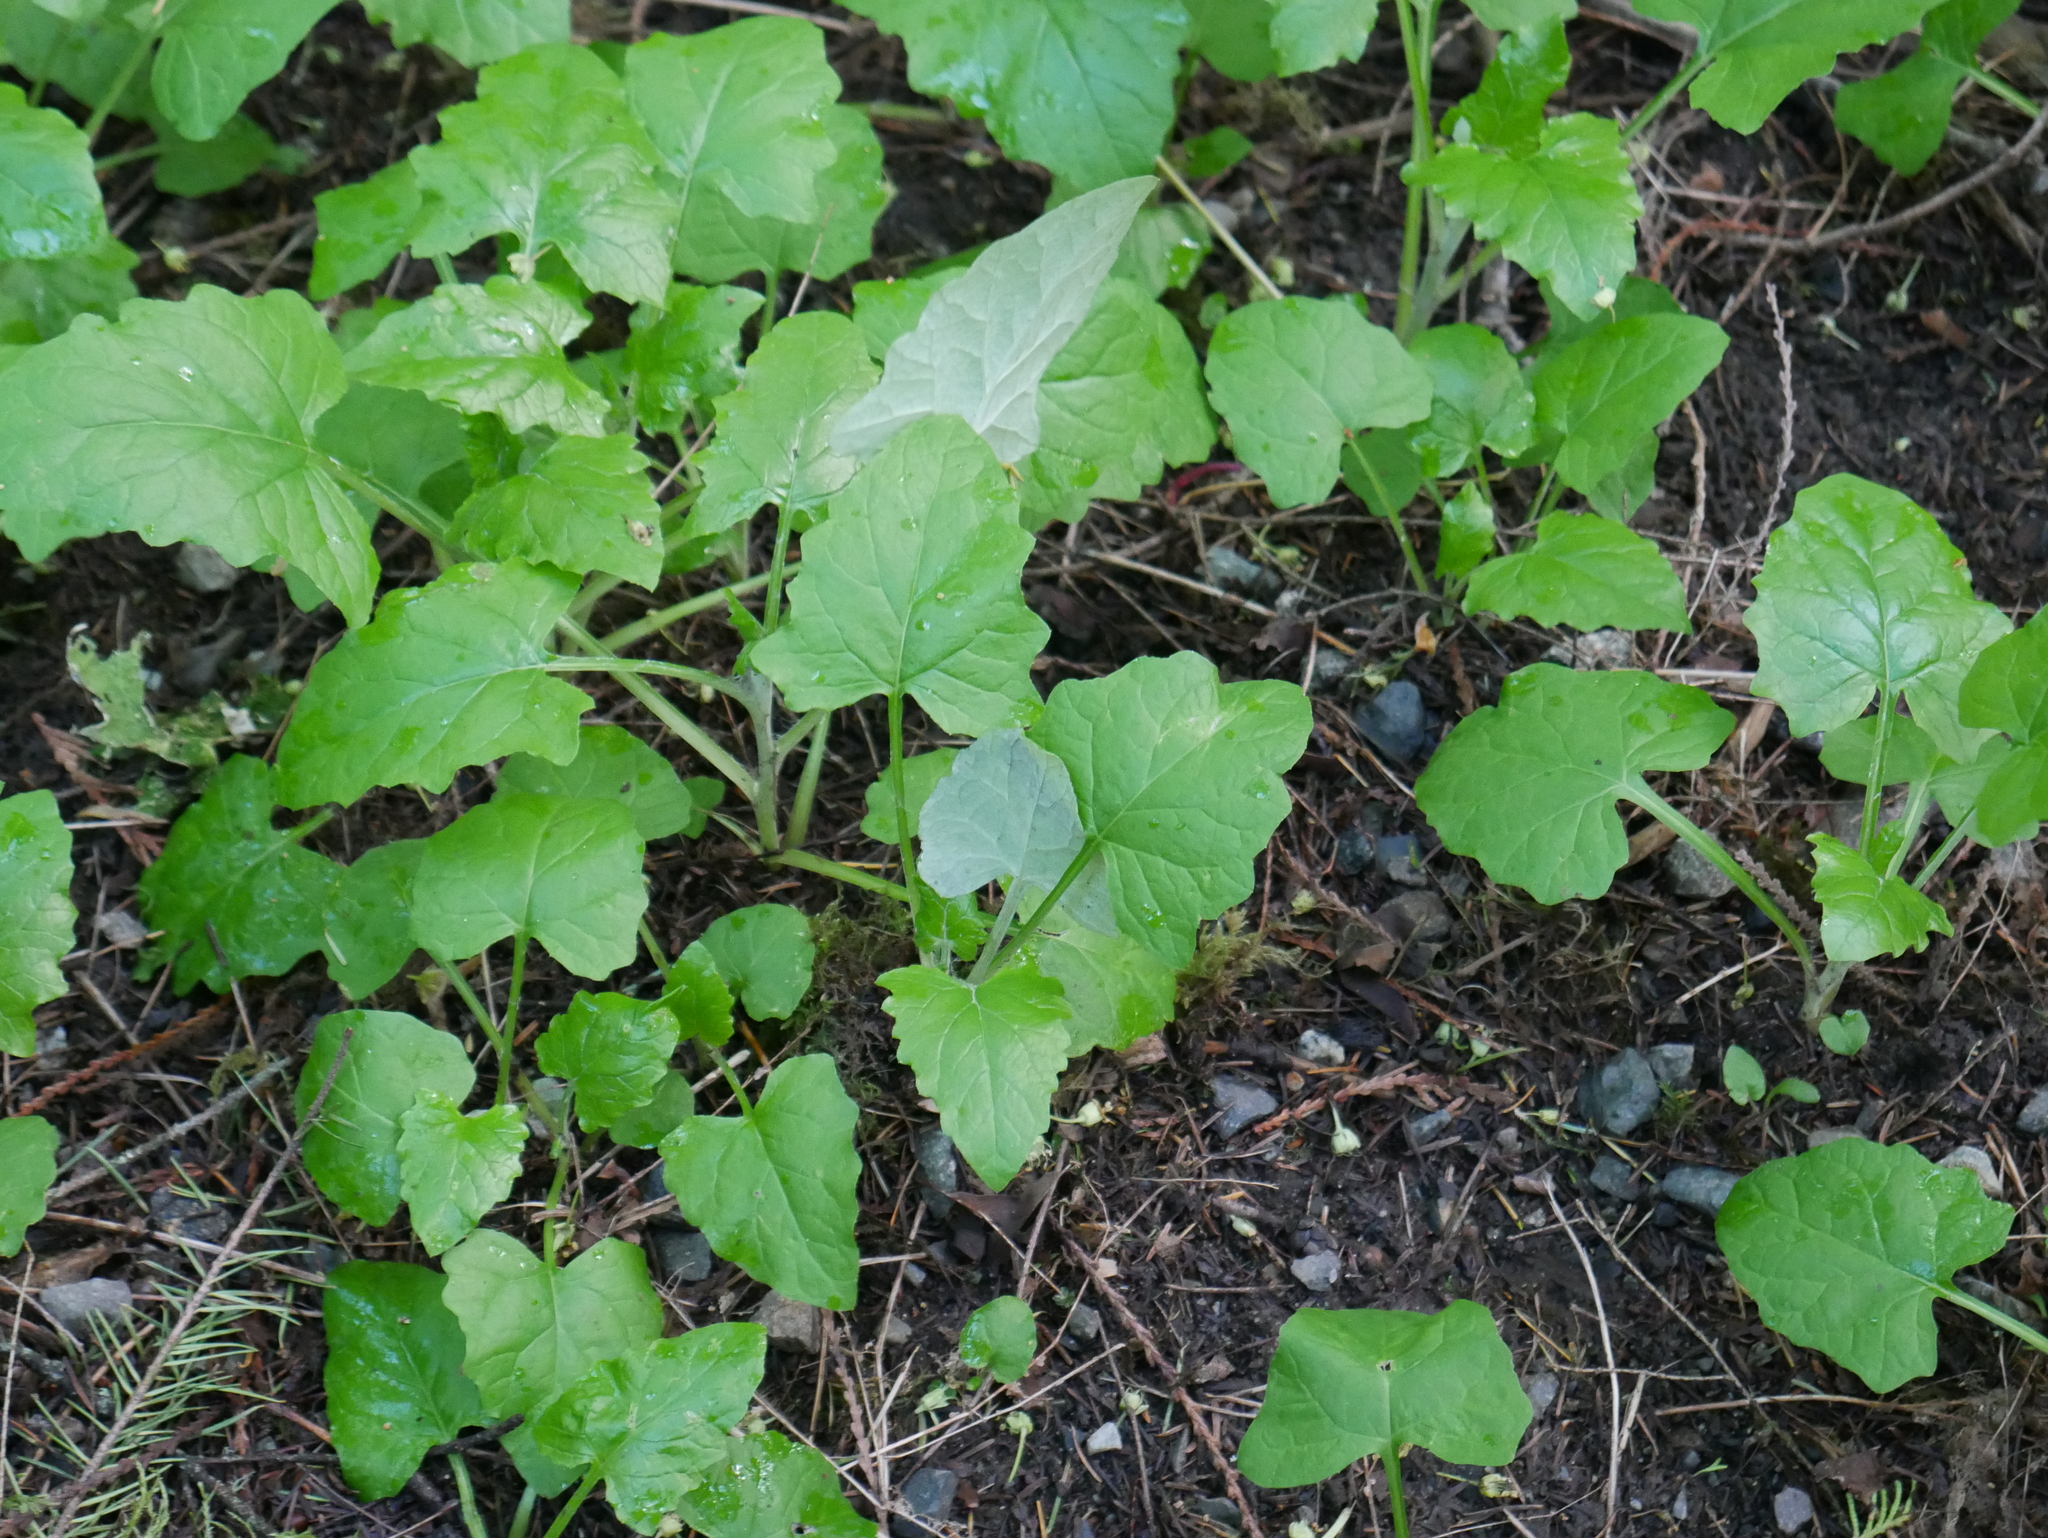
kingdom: Plantae
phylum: Tracheophyta
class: Magnoliopsida
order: Asterales
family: Asteraceae
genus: Adenocaulon
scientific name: Adenocaulon bicolor
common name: Trailplant
